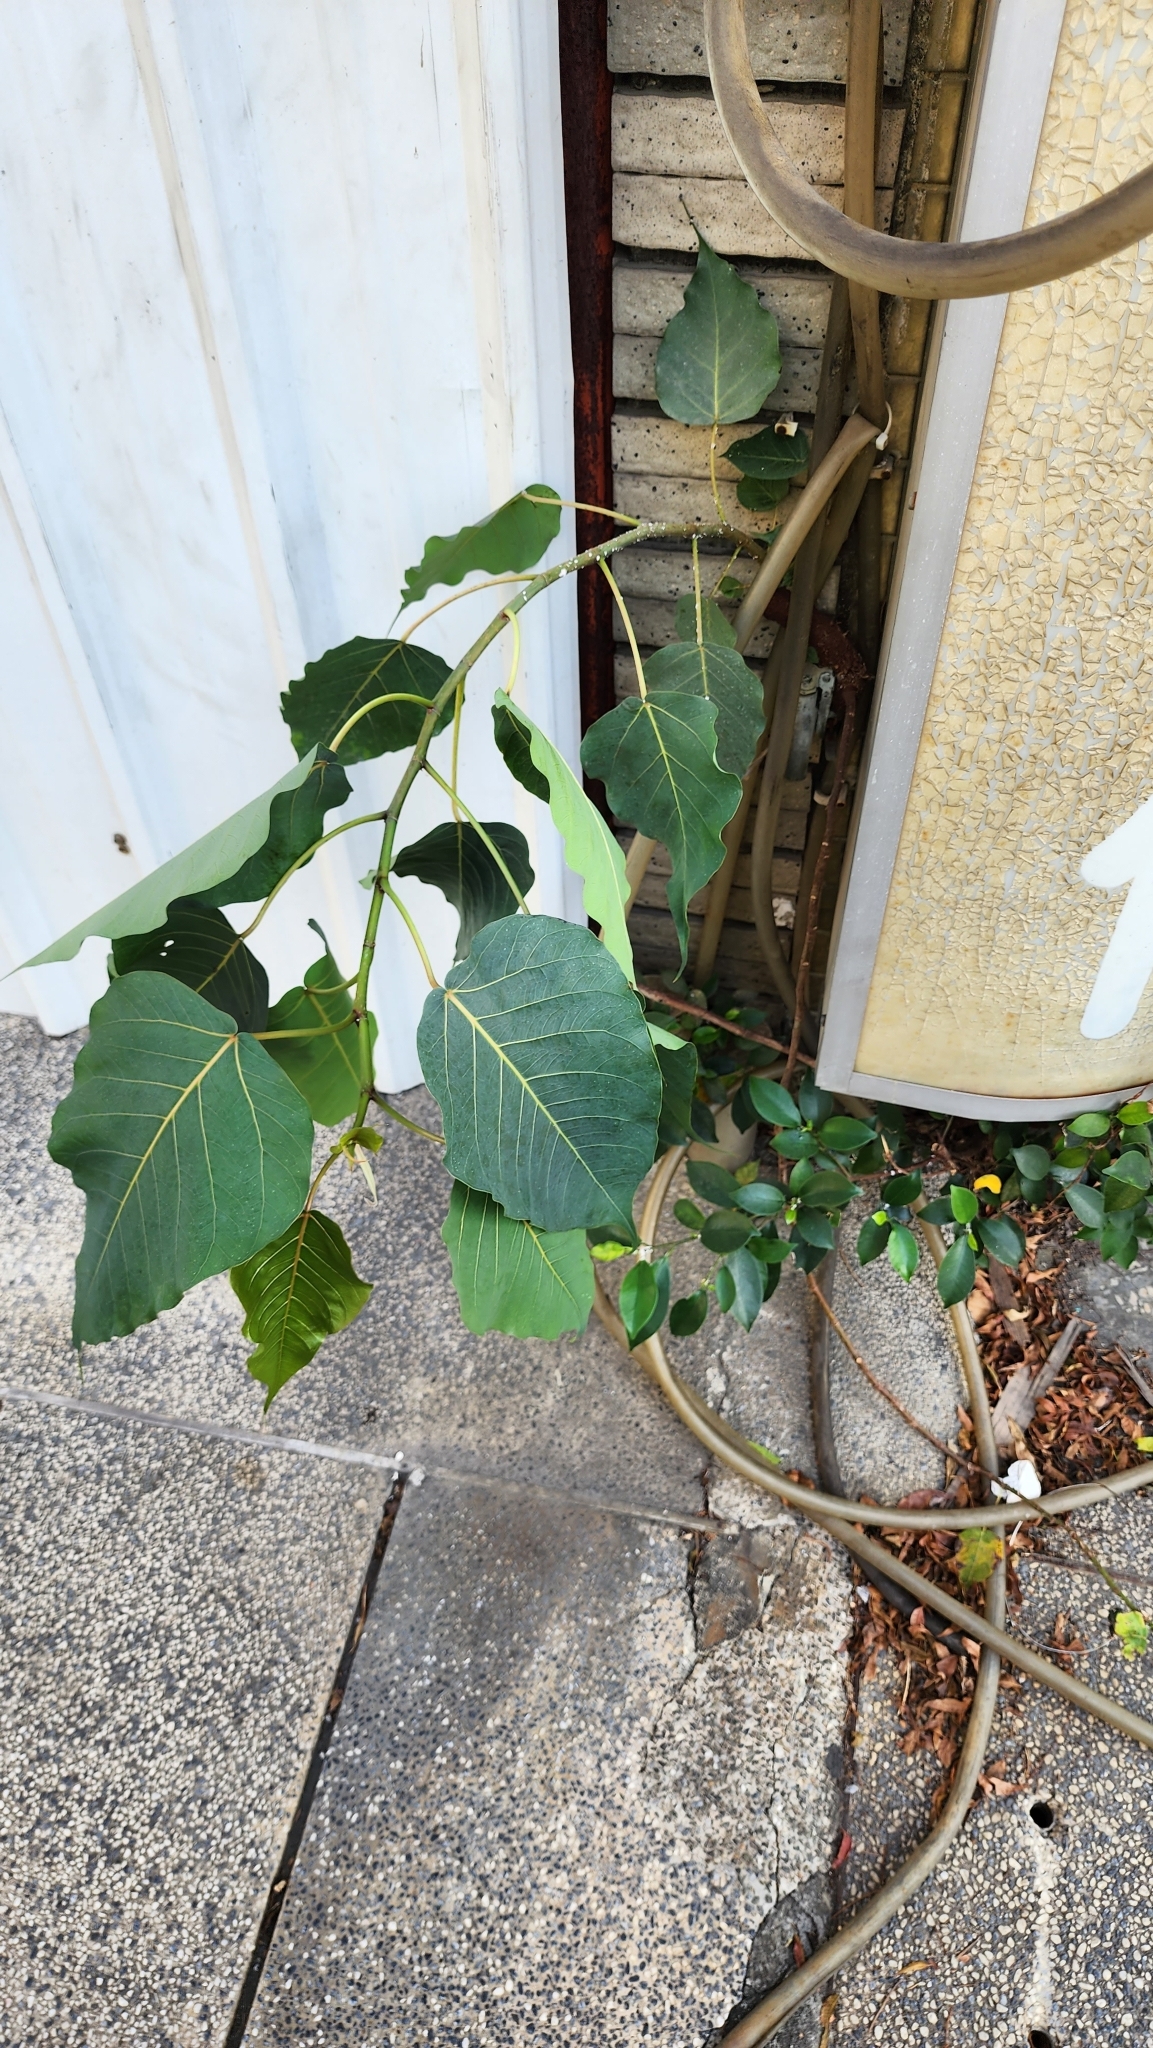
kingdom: Plantae
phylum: Tracheophyta
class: Magnoliopsida
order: Rosales
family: Moraceae
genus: Ficus
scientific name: Ficus religiosa
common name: Bodhi tree
